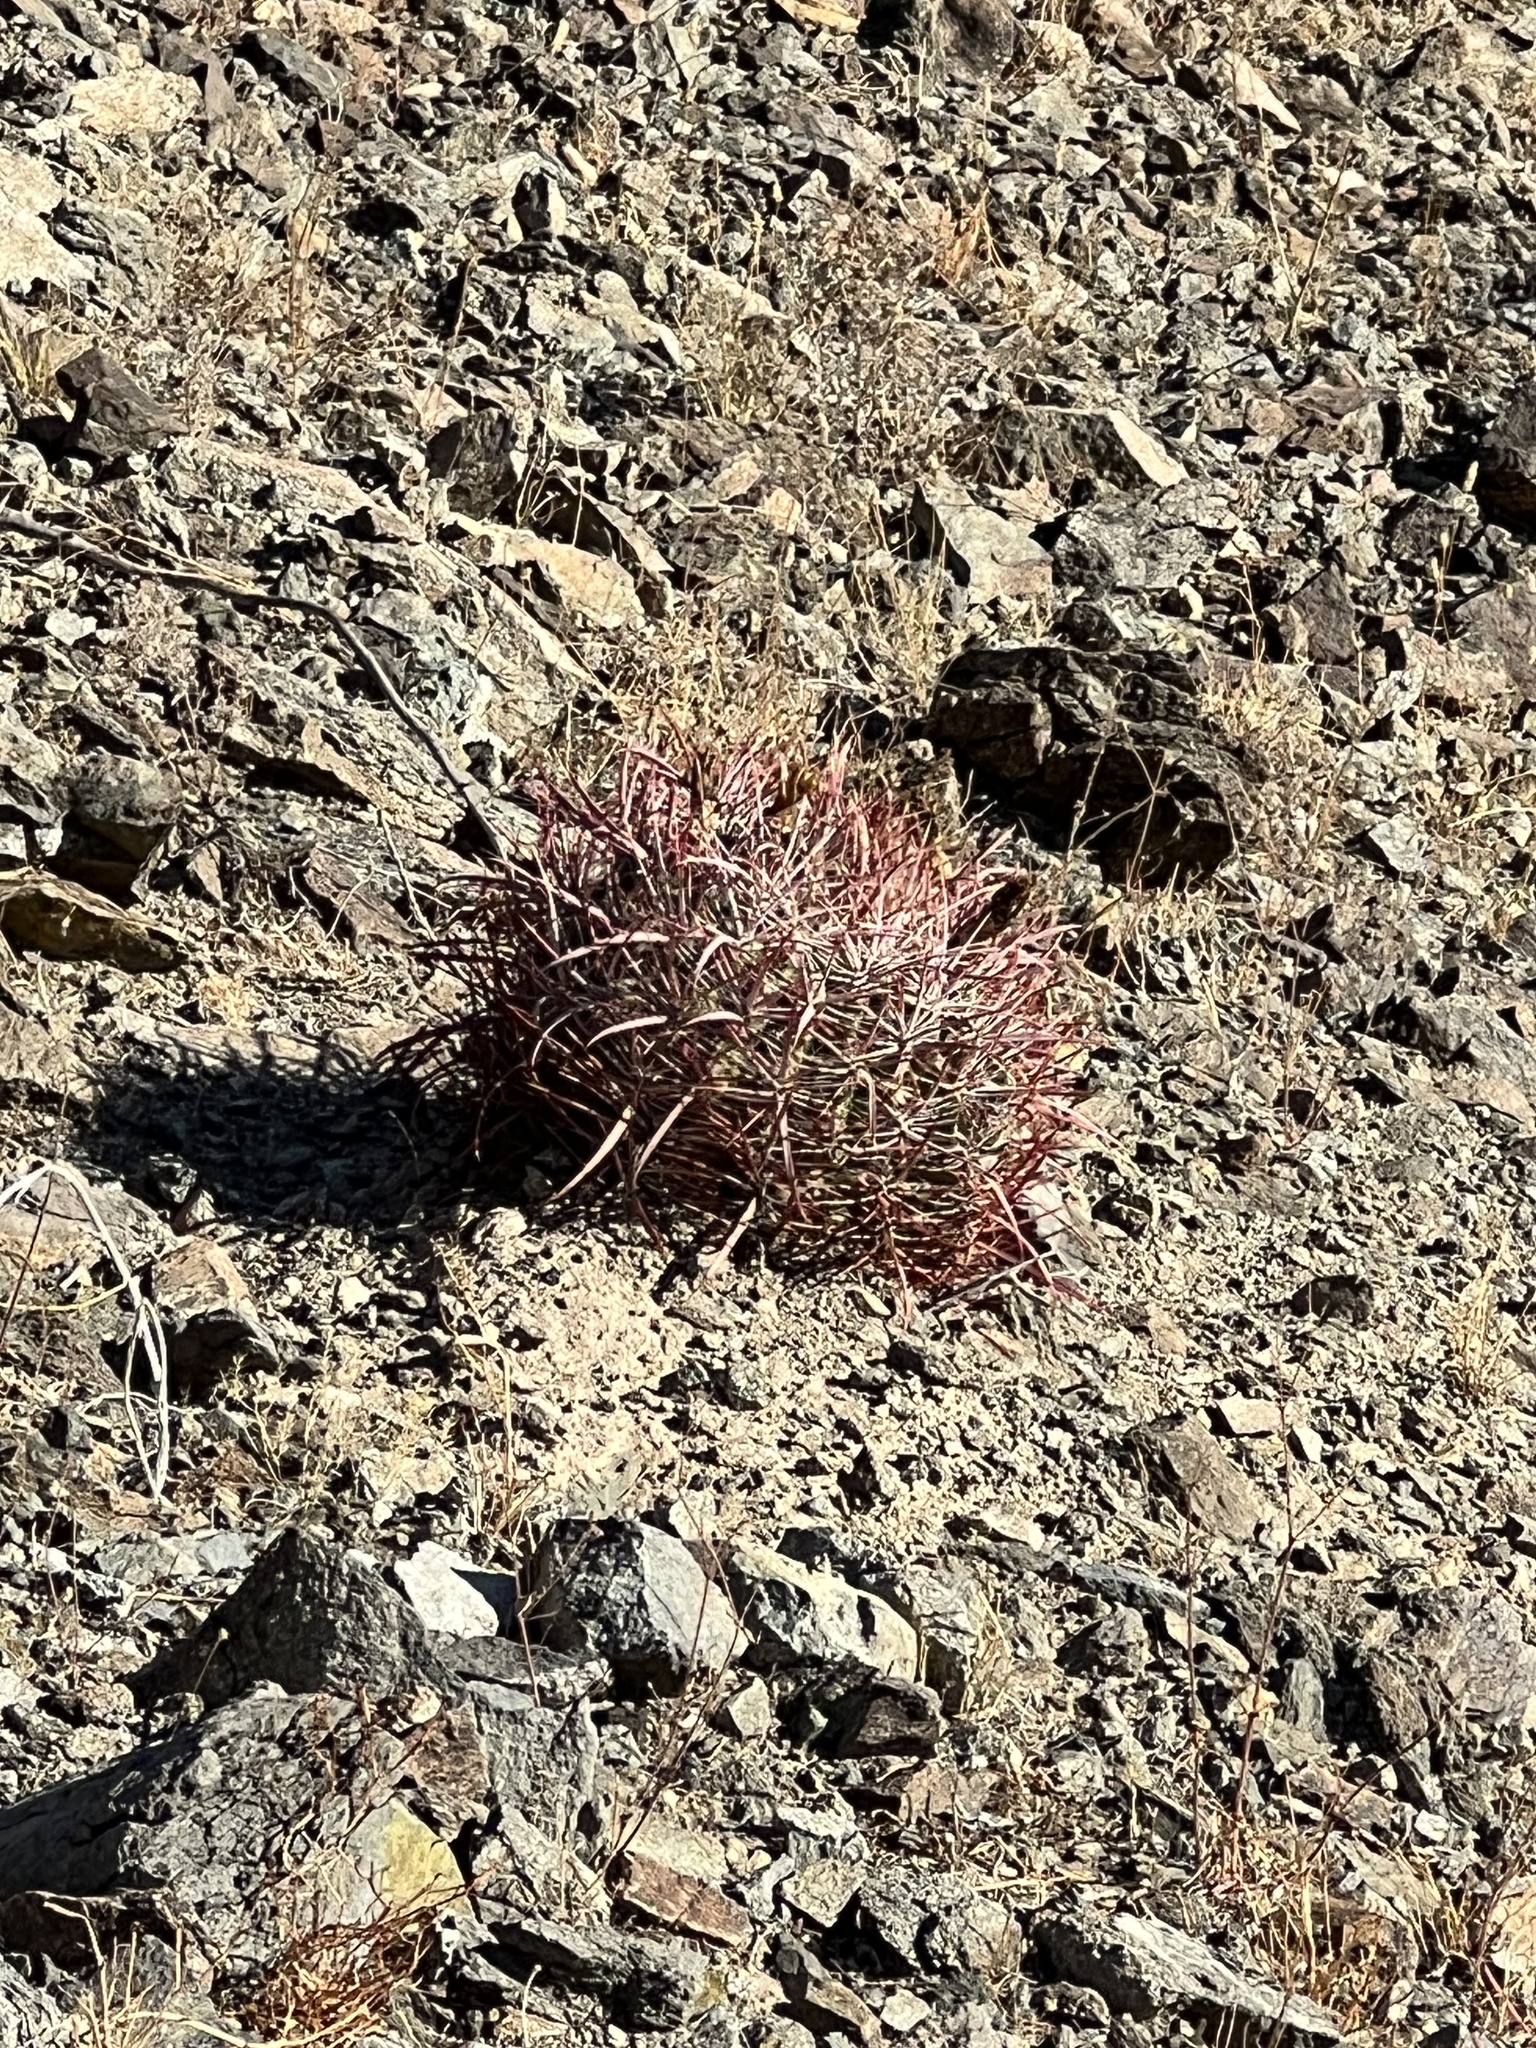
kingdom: Plantae
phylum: Tracheophyta
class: Magnoliopsida
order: Caryophyllales
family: Cactaceae
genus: Ferocactus
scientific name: Ferocactus cylindraceus
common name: California barrel cactus
